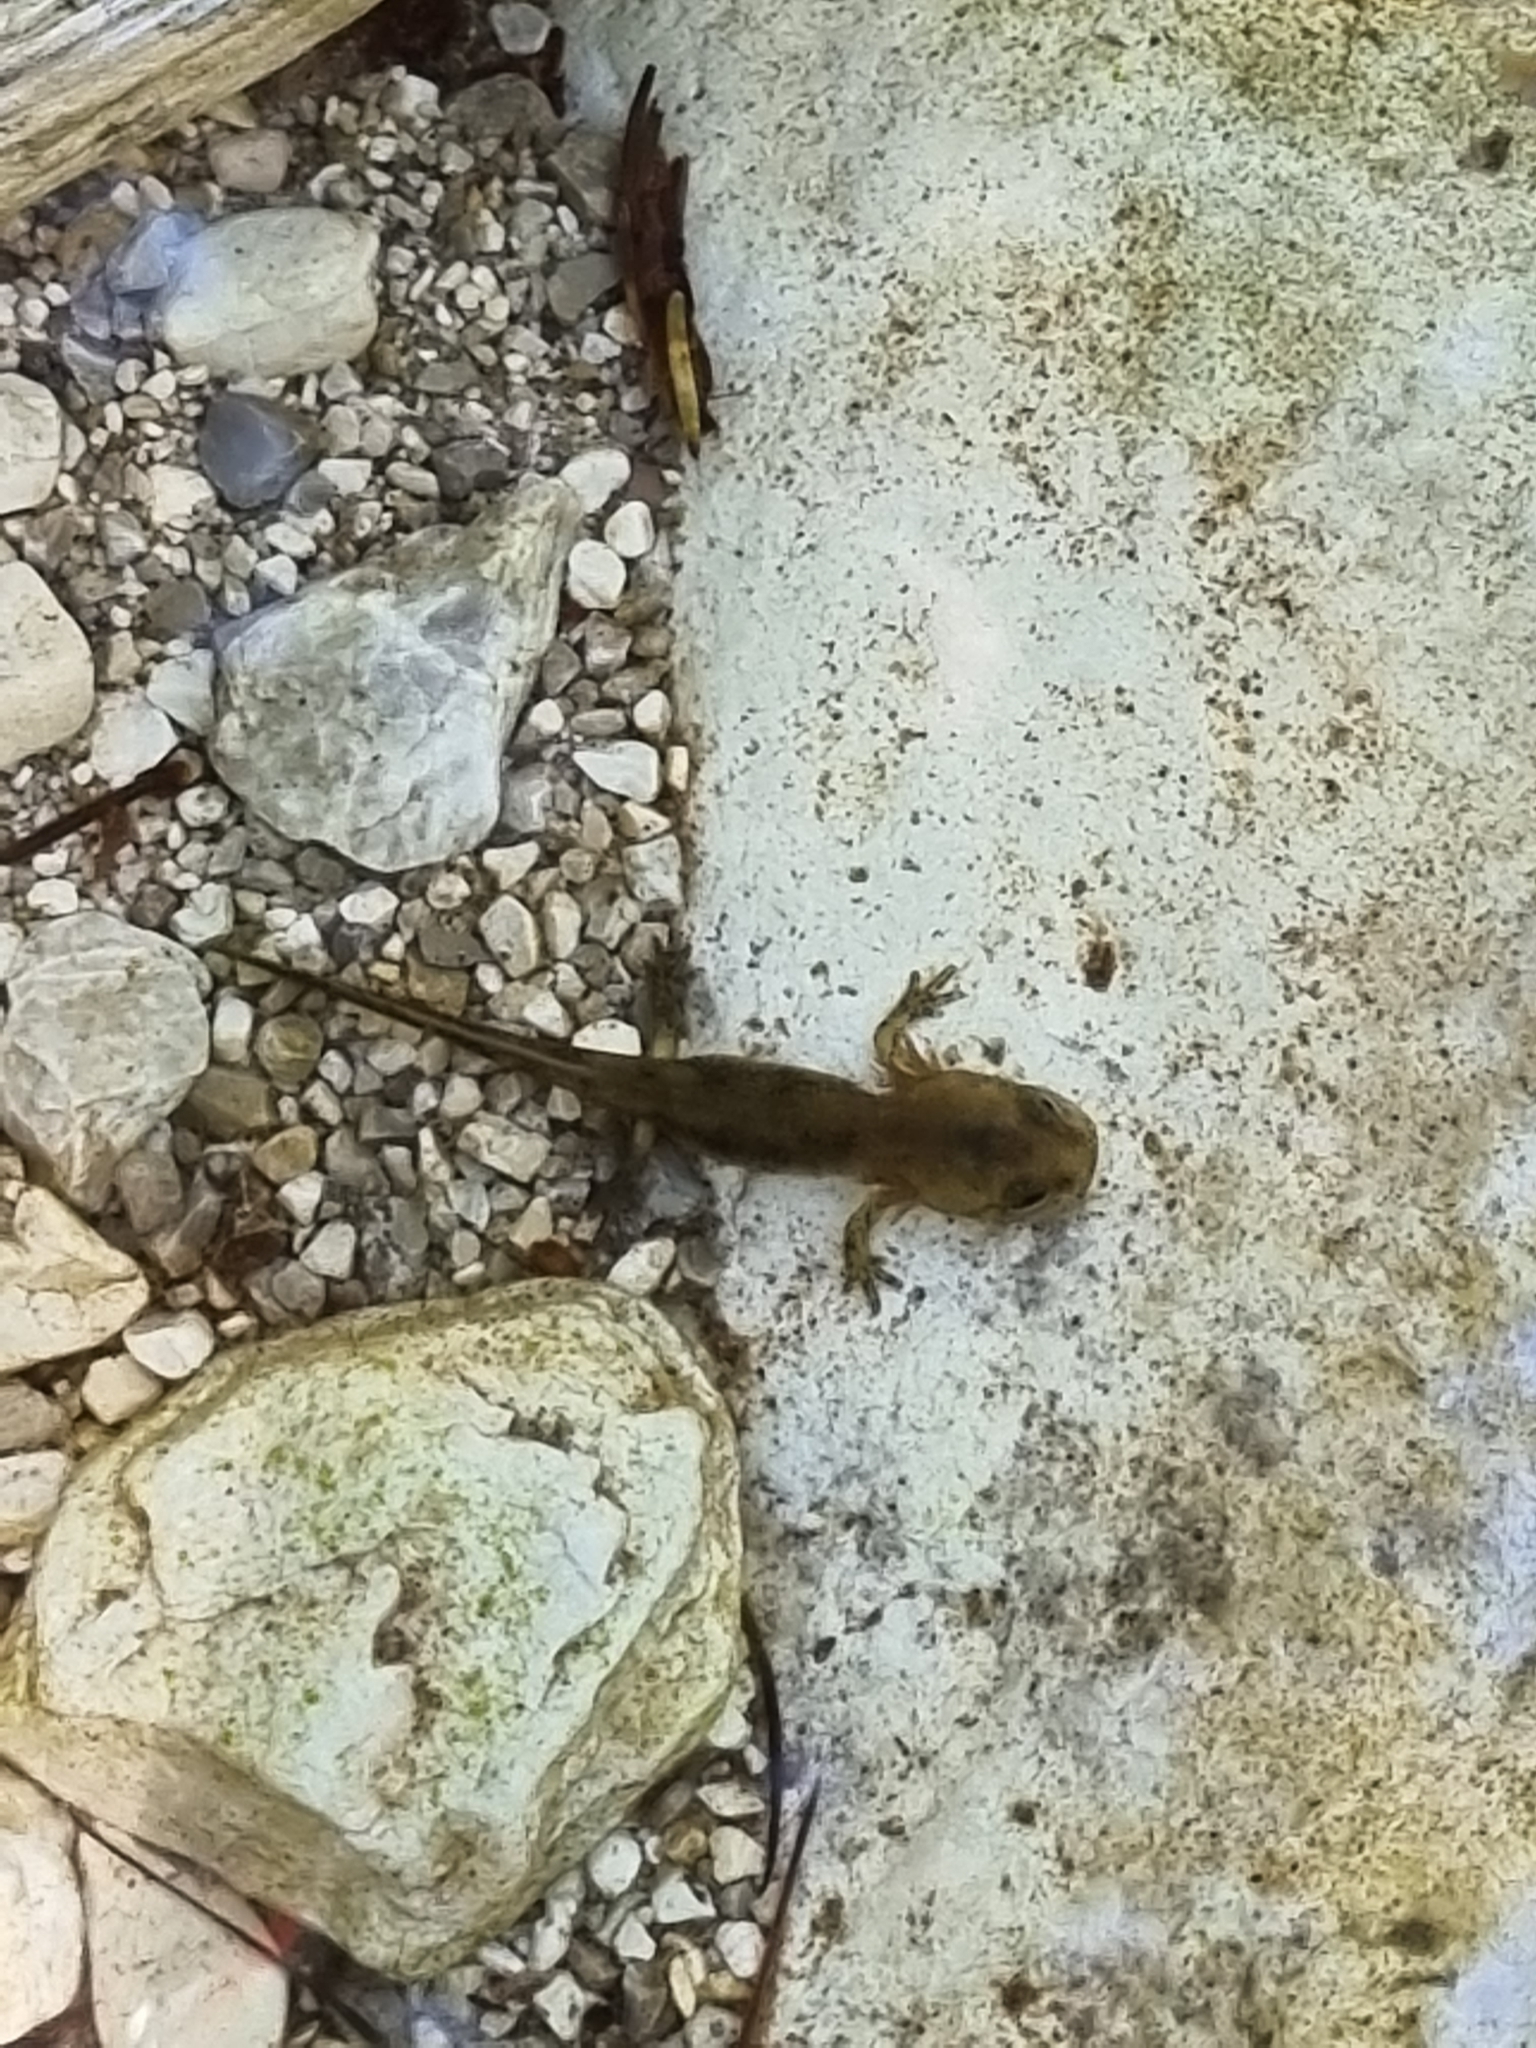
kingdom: Animalia
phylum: Chordata
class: Amphibia
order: Caudata
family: Salamandridae
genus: Salamandra
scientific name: Salamandra salamandra
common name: Fire salamander
